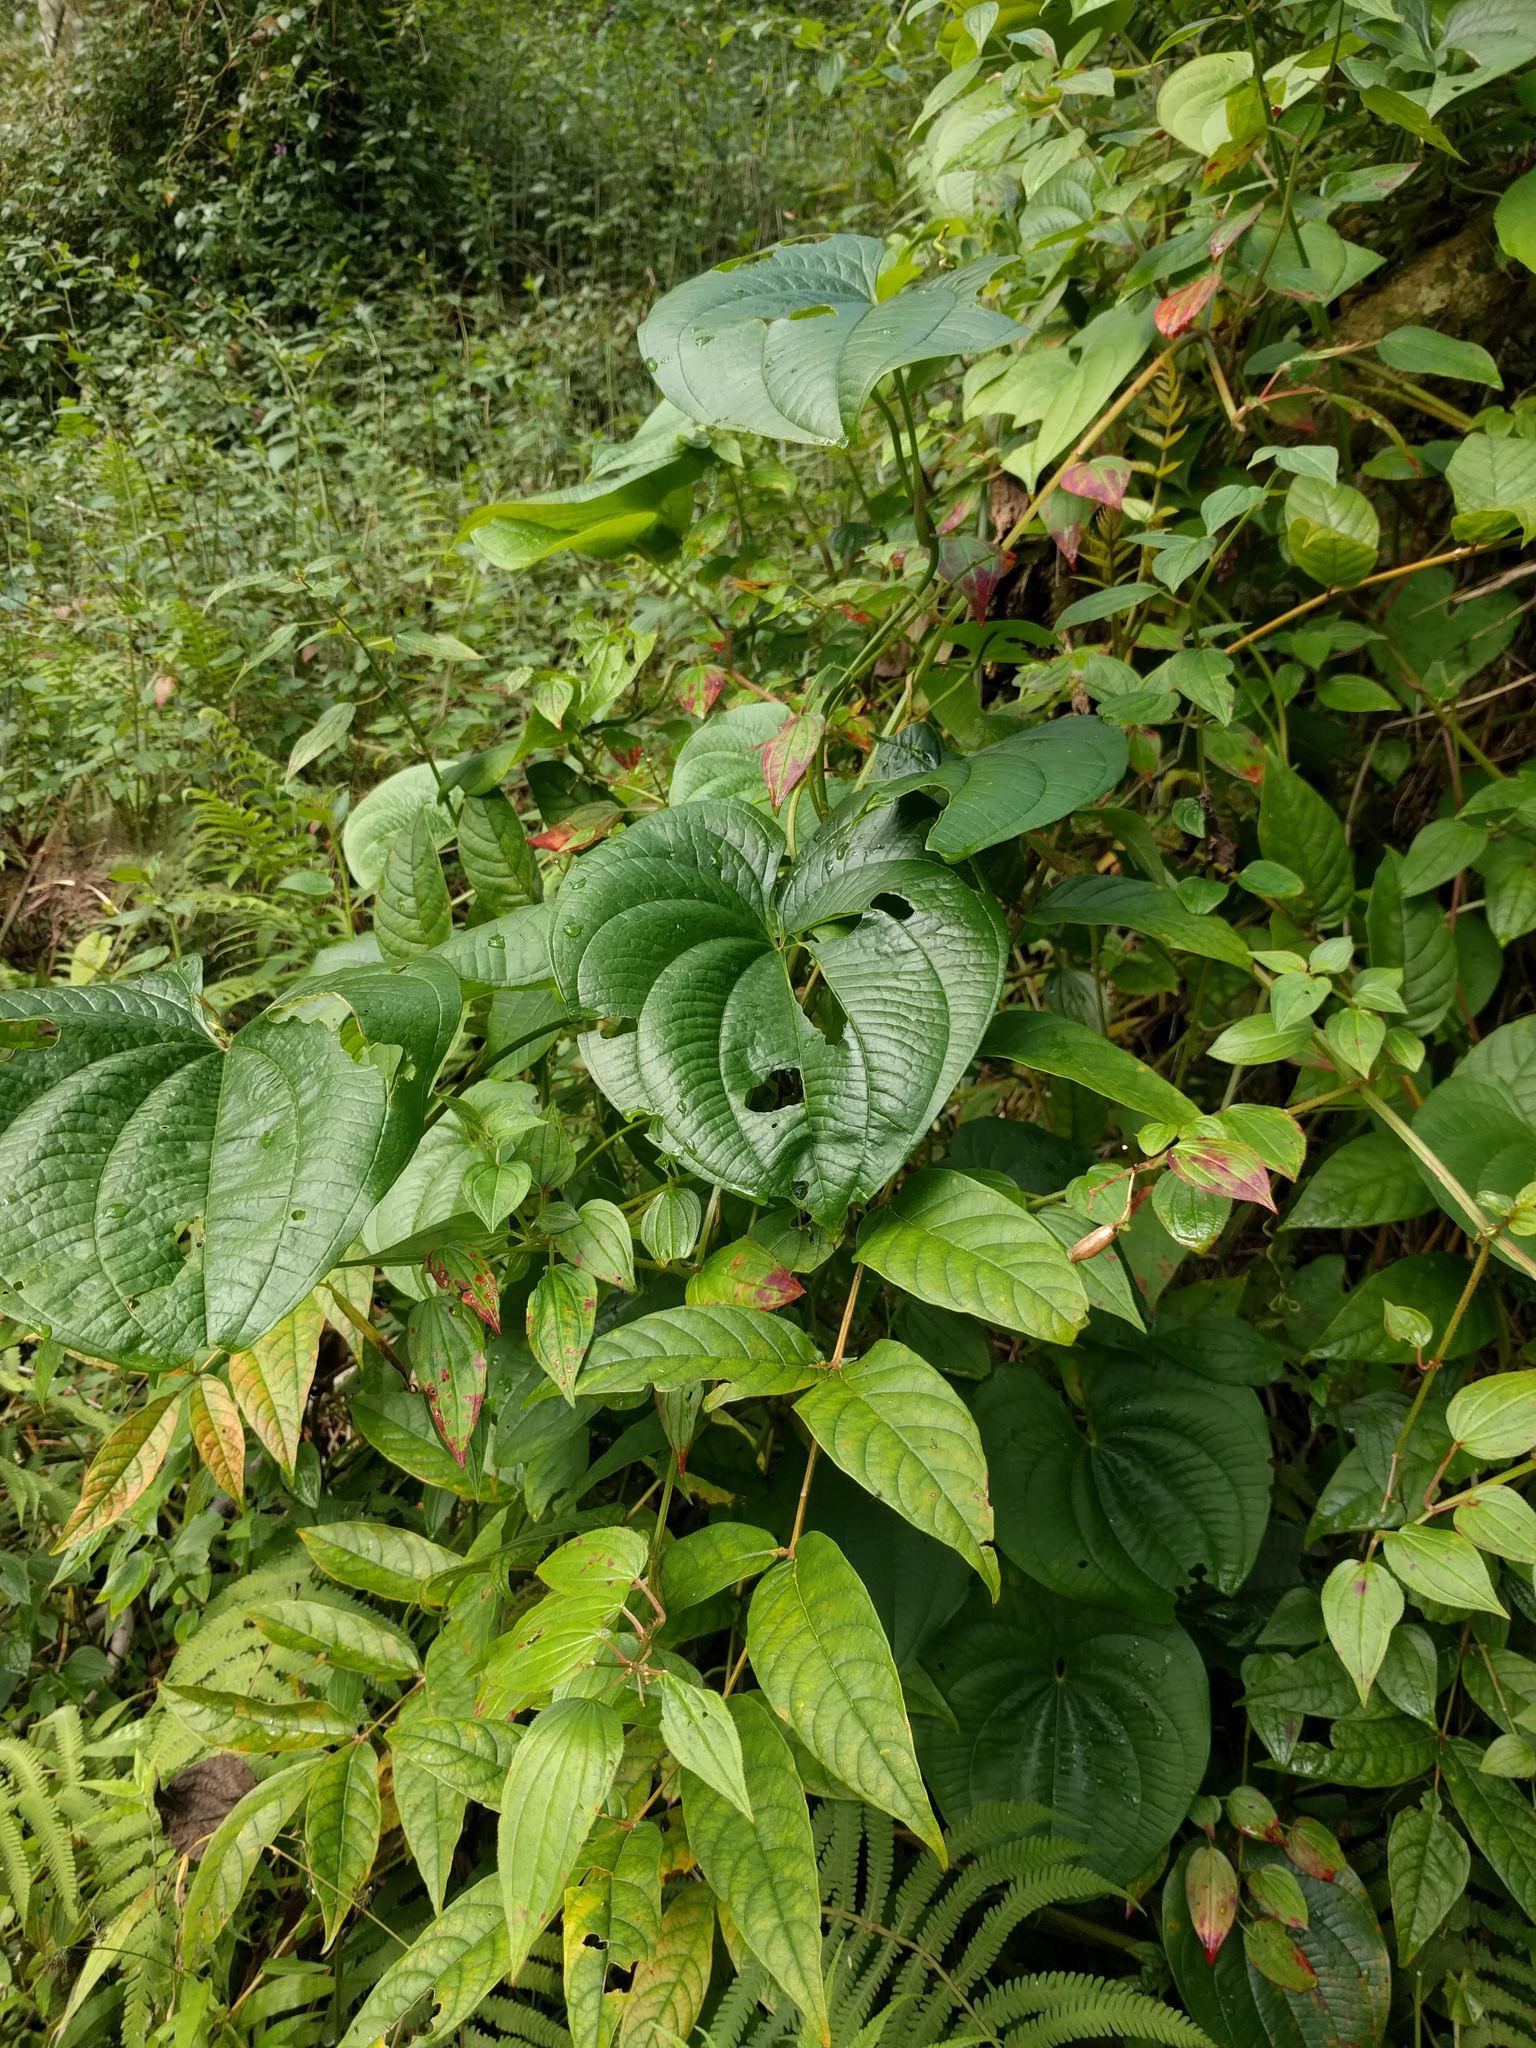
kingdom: Plantae
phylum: Tracheophyta
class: Liliopsida
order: Dioscoreales
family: Dioscoreaceae
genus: Dioscorea
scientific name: Dioscorea bulbifera
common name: Air yam
